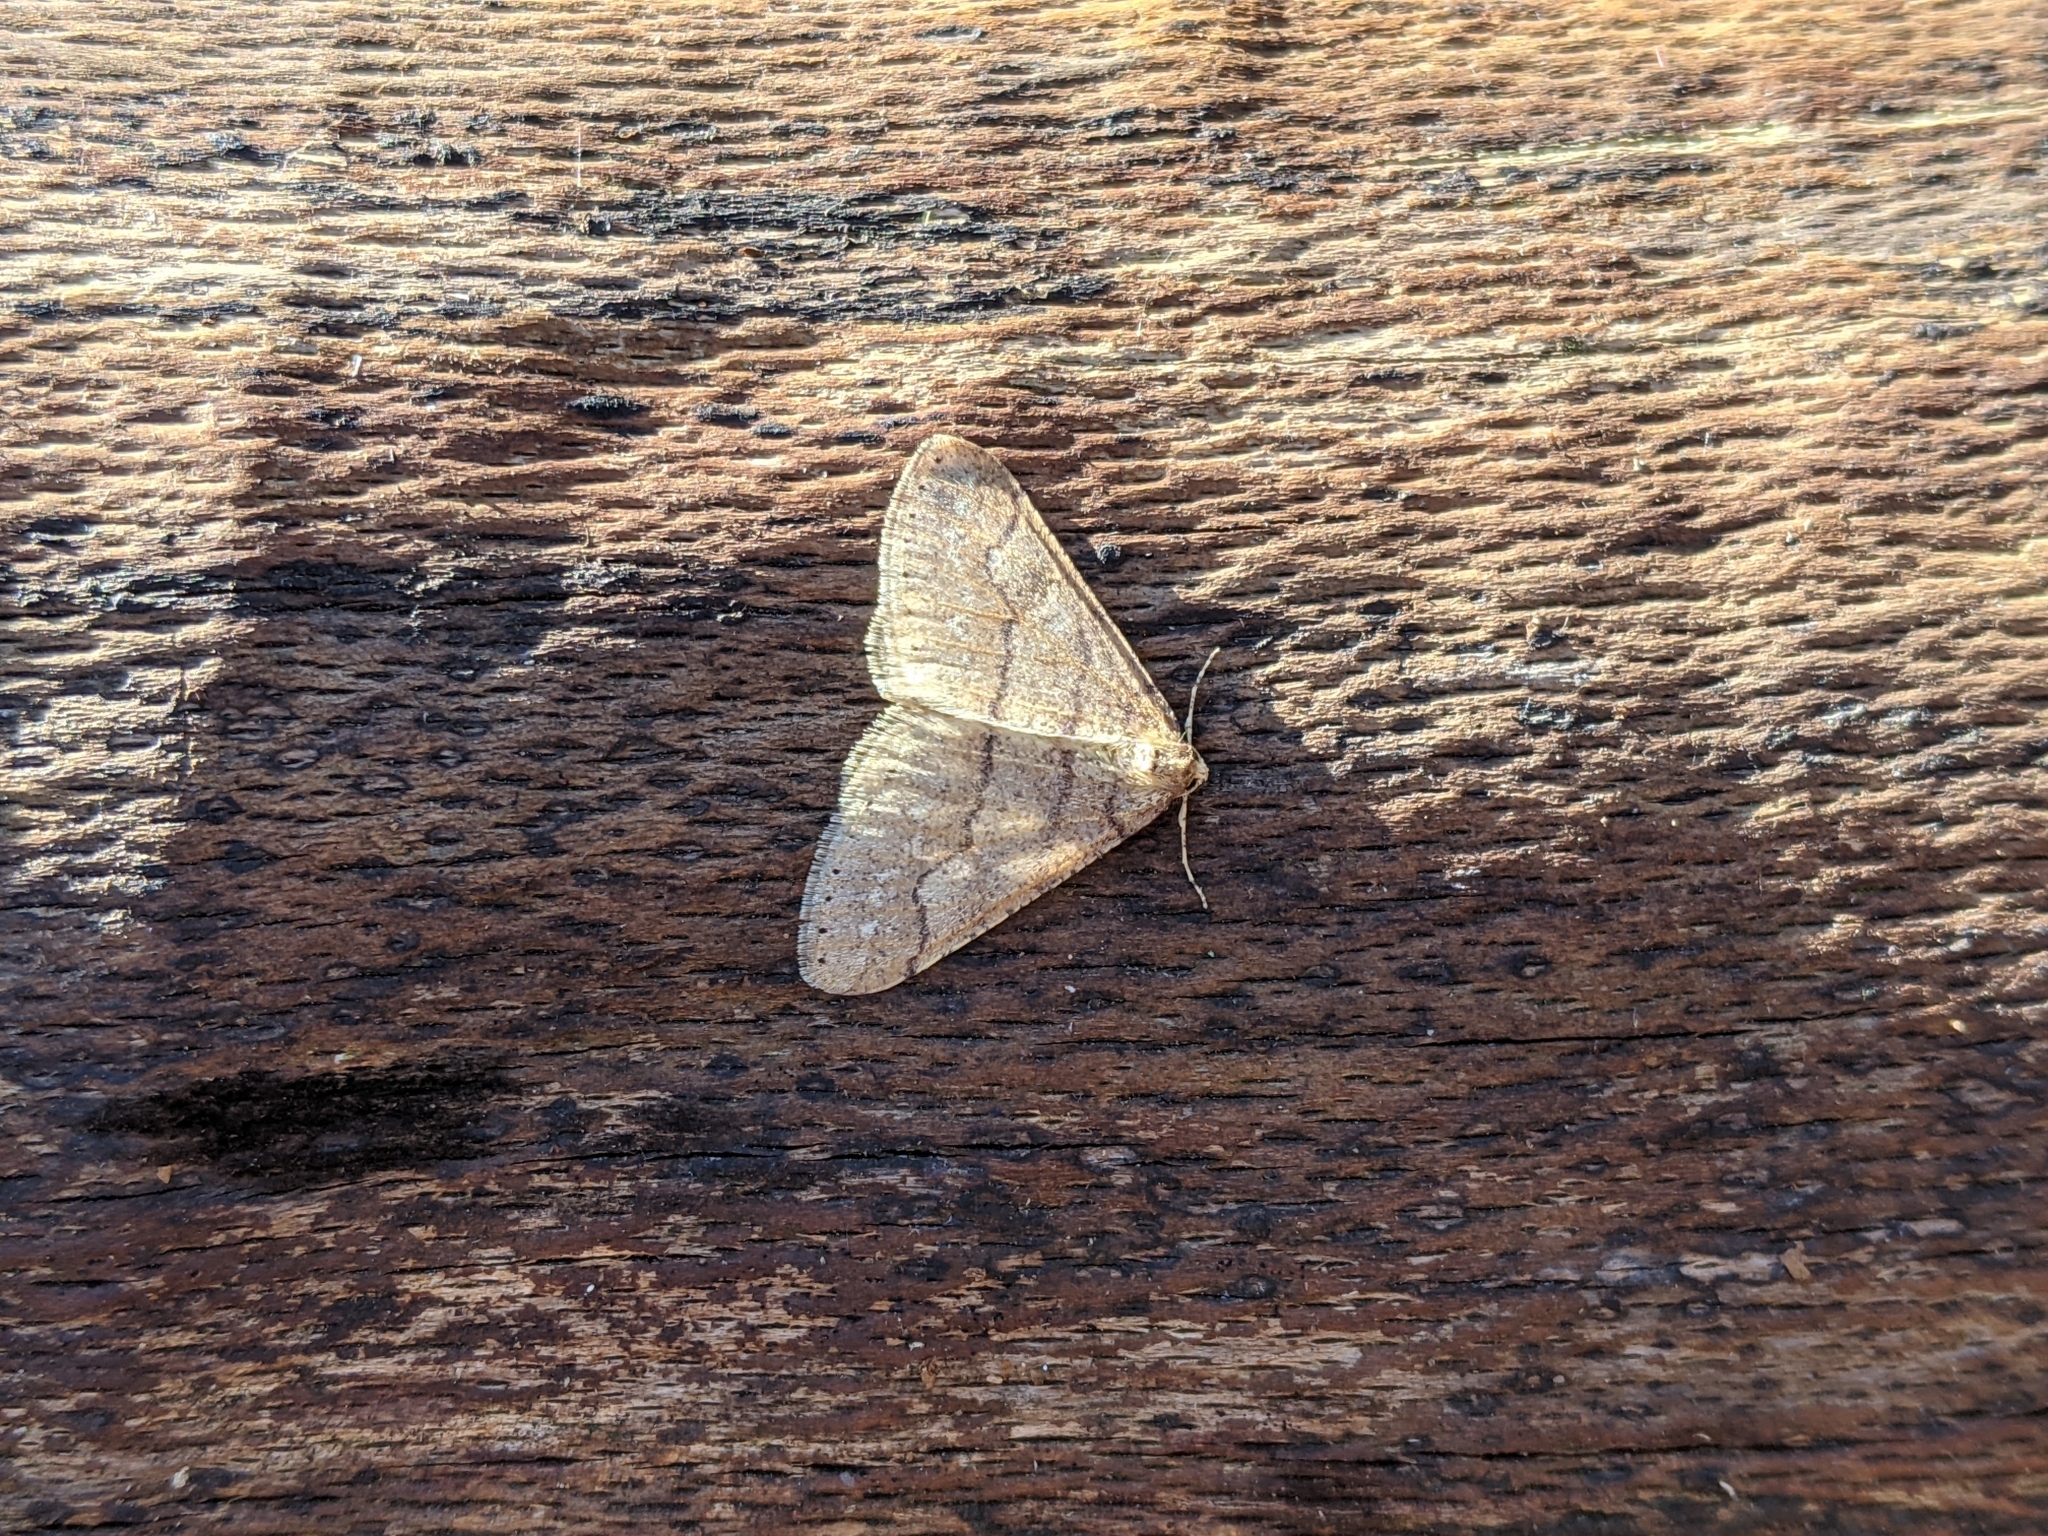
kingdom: Animalia
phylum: Arthropoda
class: Insecta
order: Lepidoptera
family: Geometridae
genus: Agriopis
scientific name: Agriopis marginaria
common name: Dotted border
